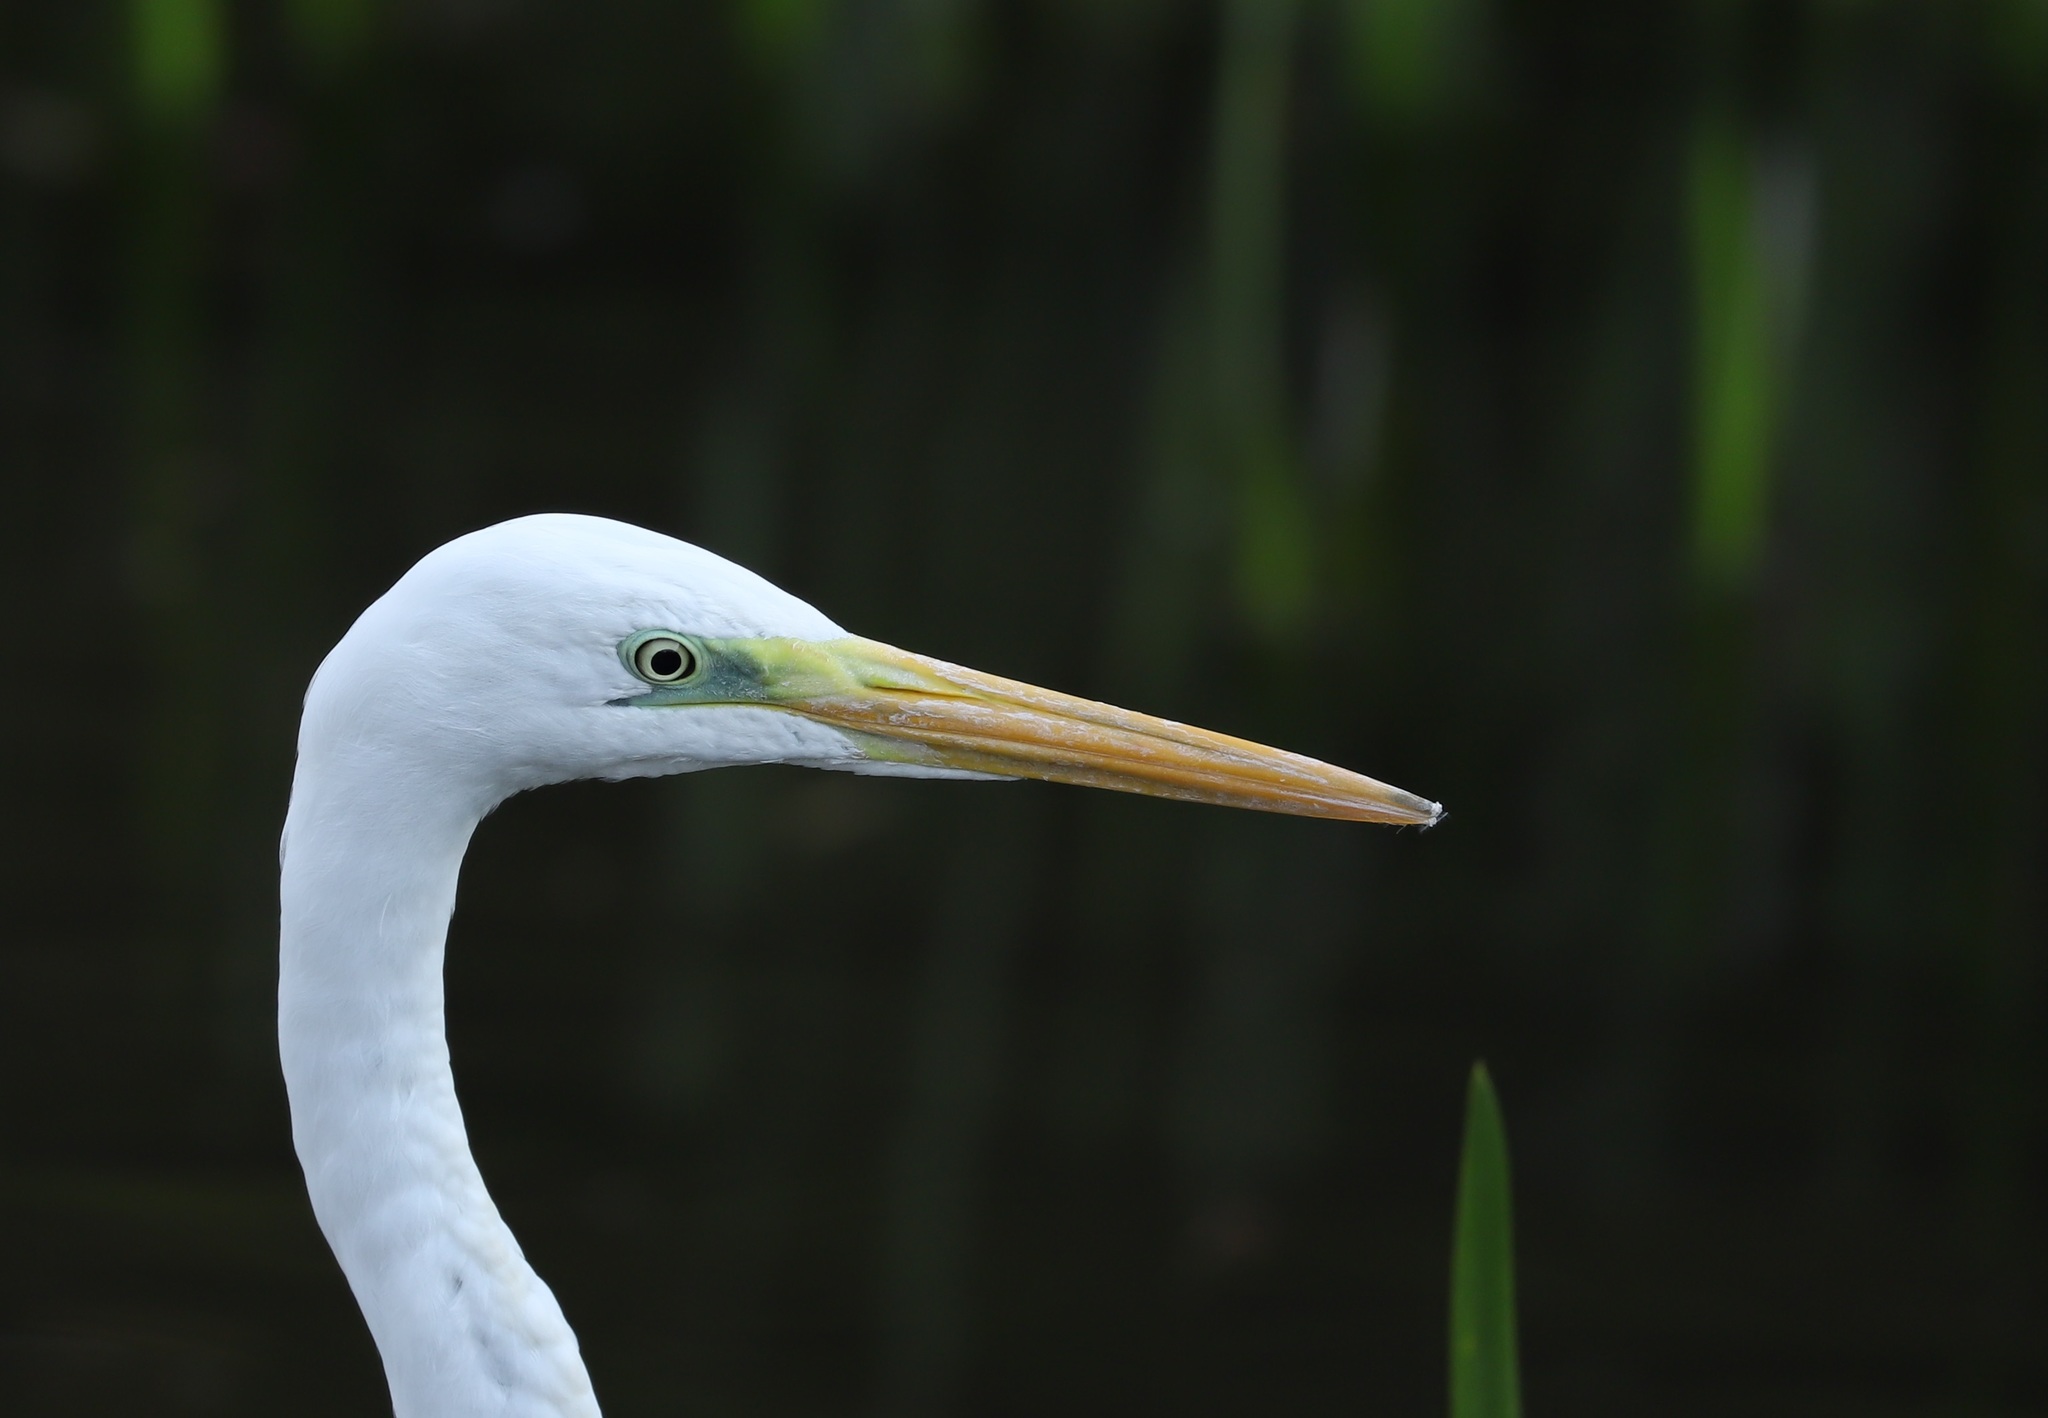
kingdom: Animalia
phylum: Chordata
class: Aves
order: Pelecaniformes
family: Ardeidae
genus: Ardea
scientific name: Ardea alba
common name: Great egret
